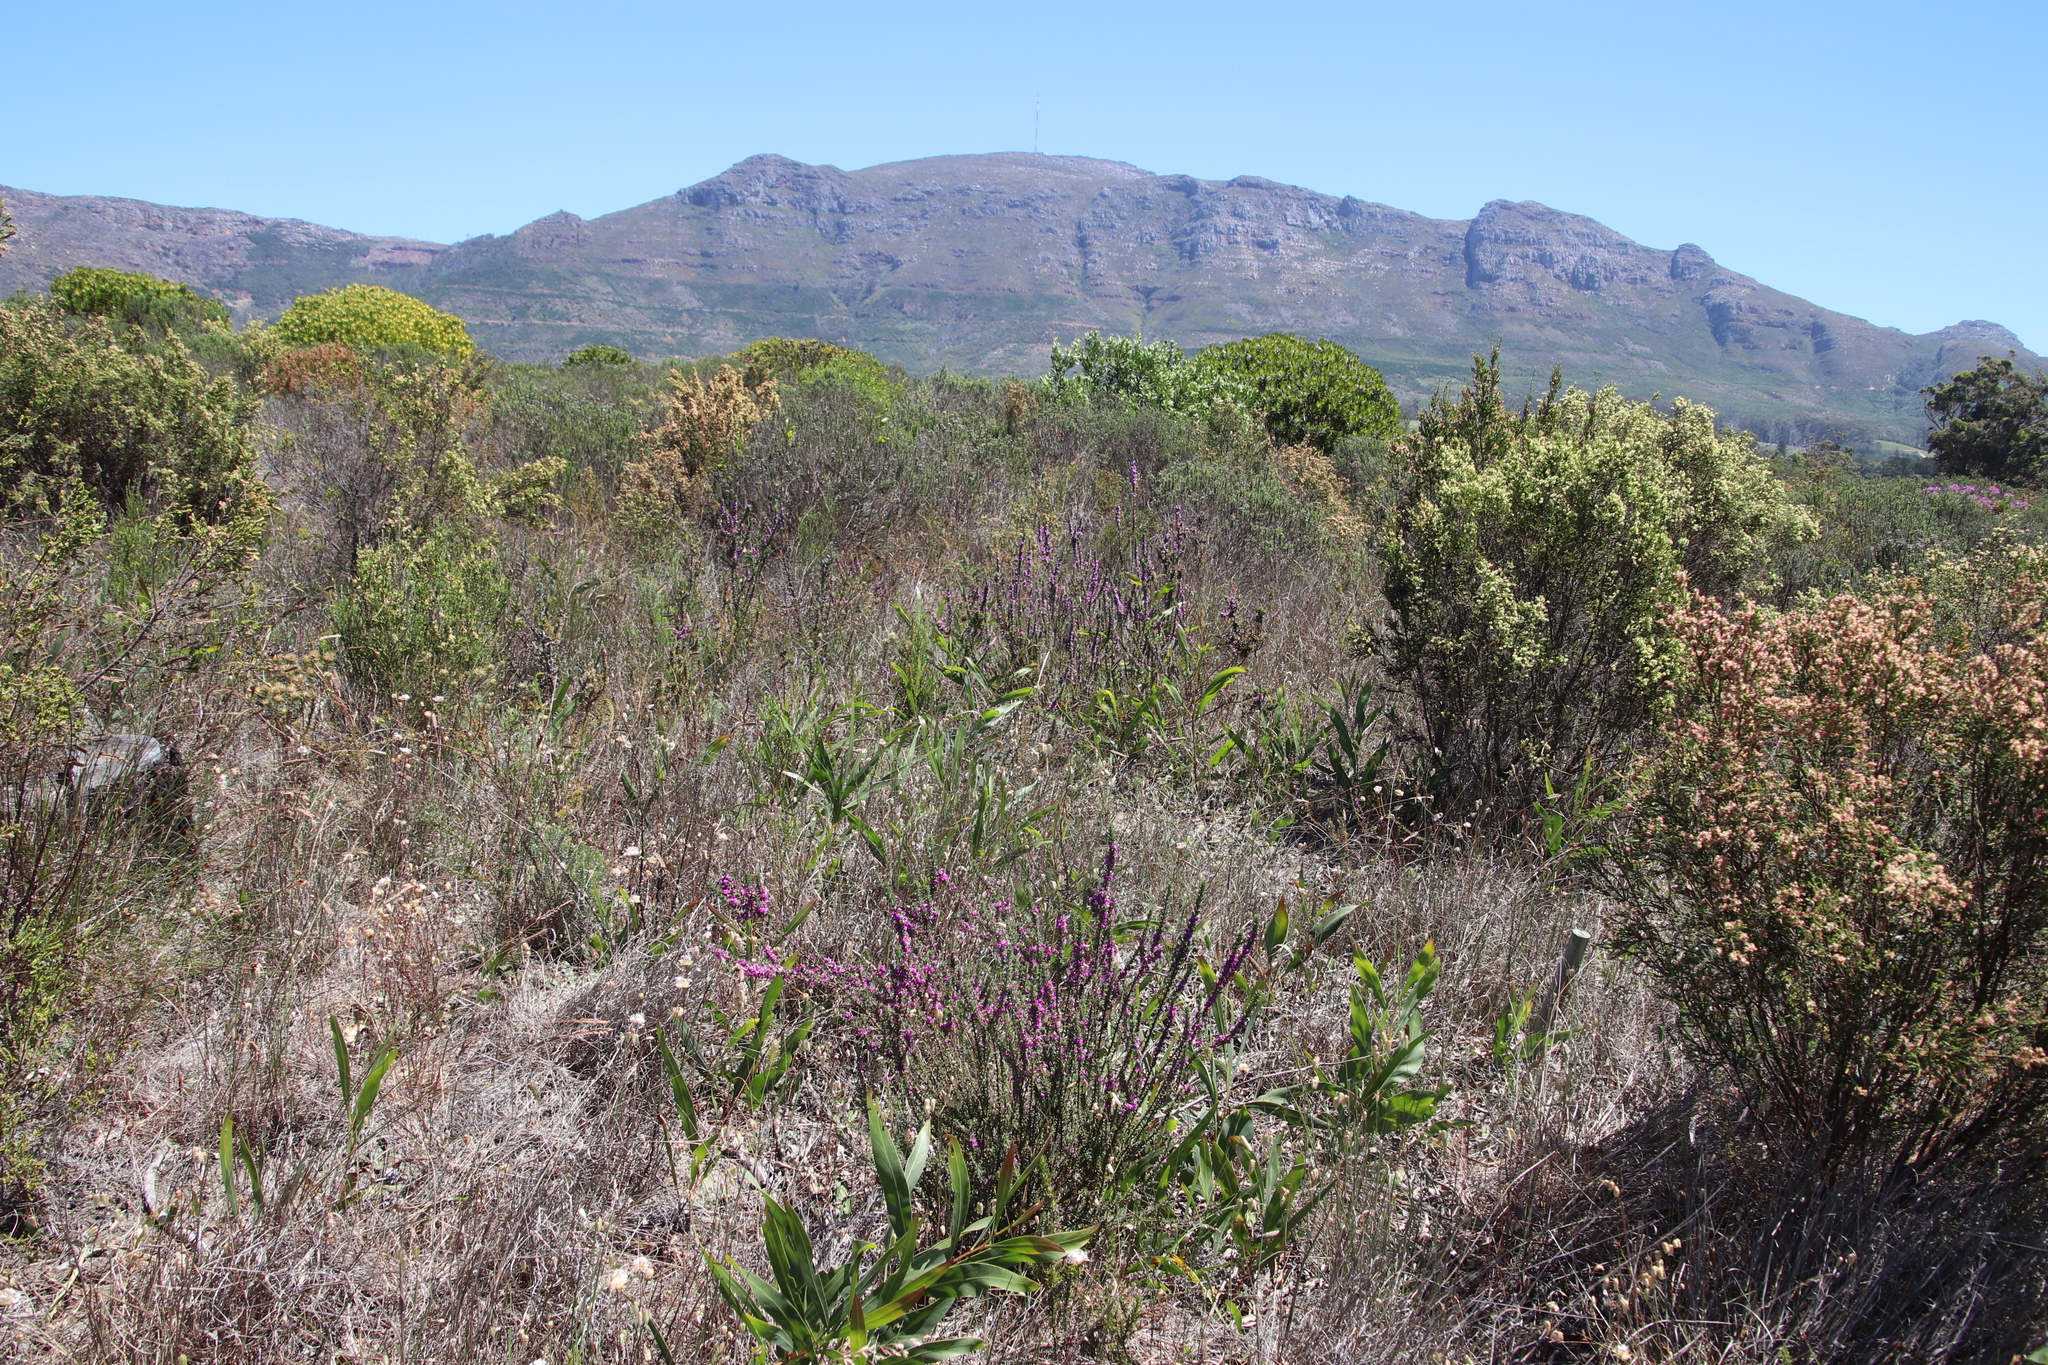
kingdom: Plantae
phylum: Tracheophyta
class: Magnoliopsida
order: Fabales
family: Polygalaceae
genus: Muraltia
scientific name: Muraltia heisteria
